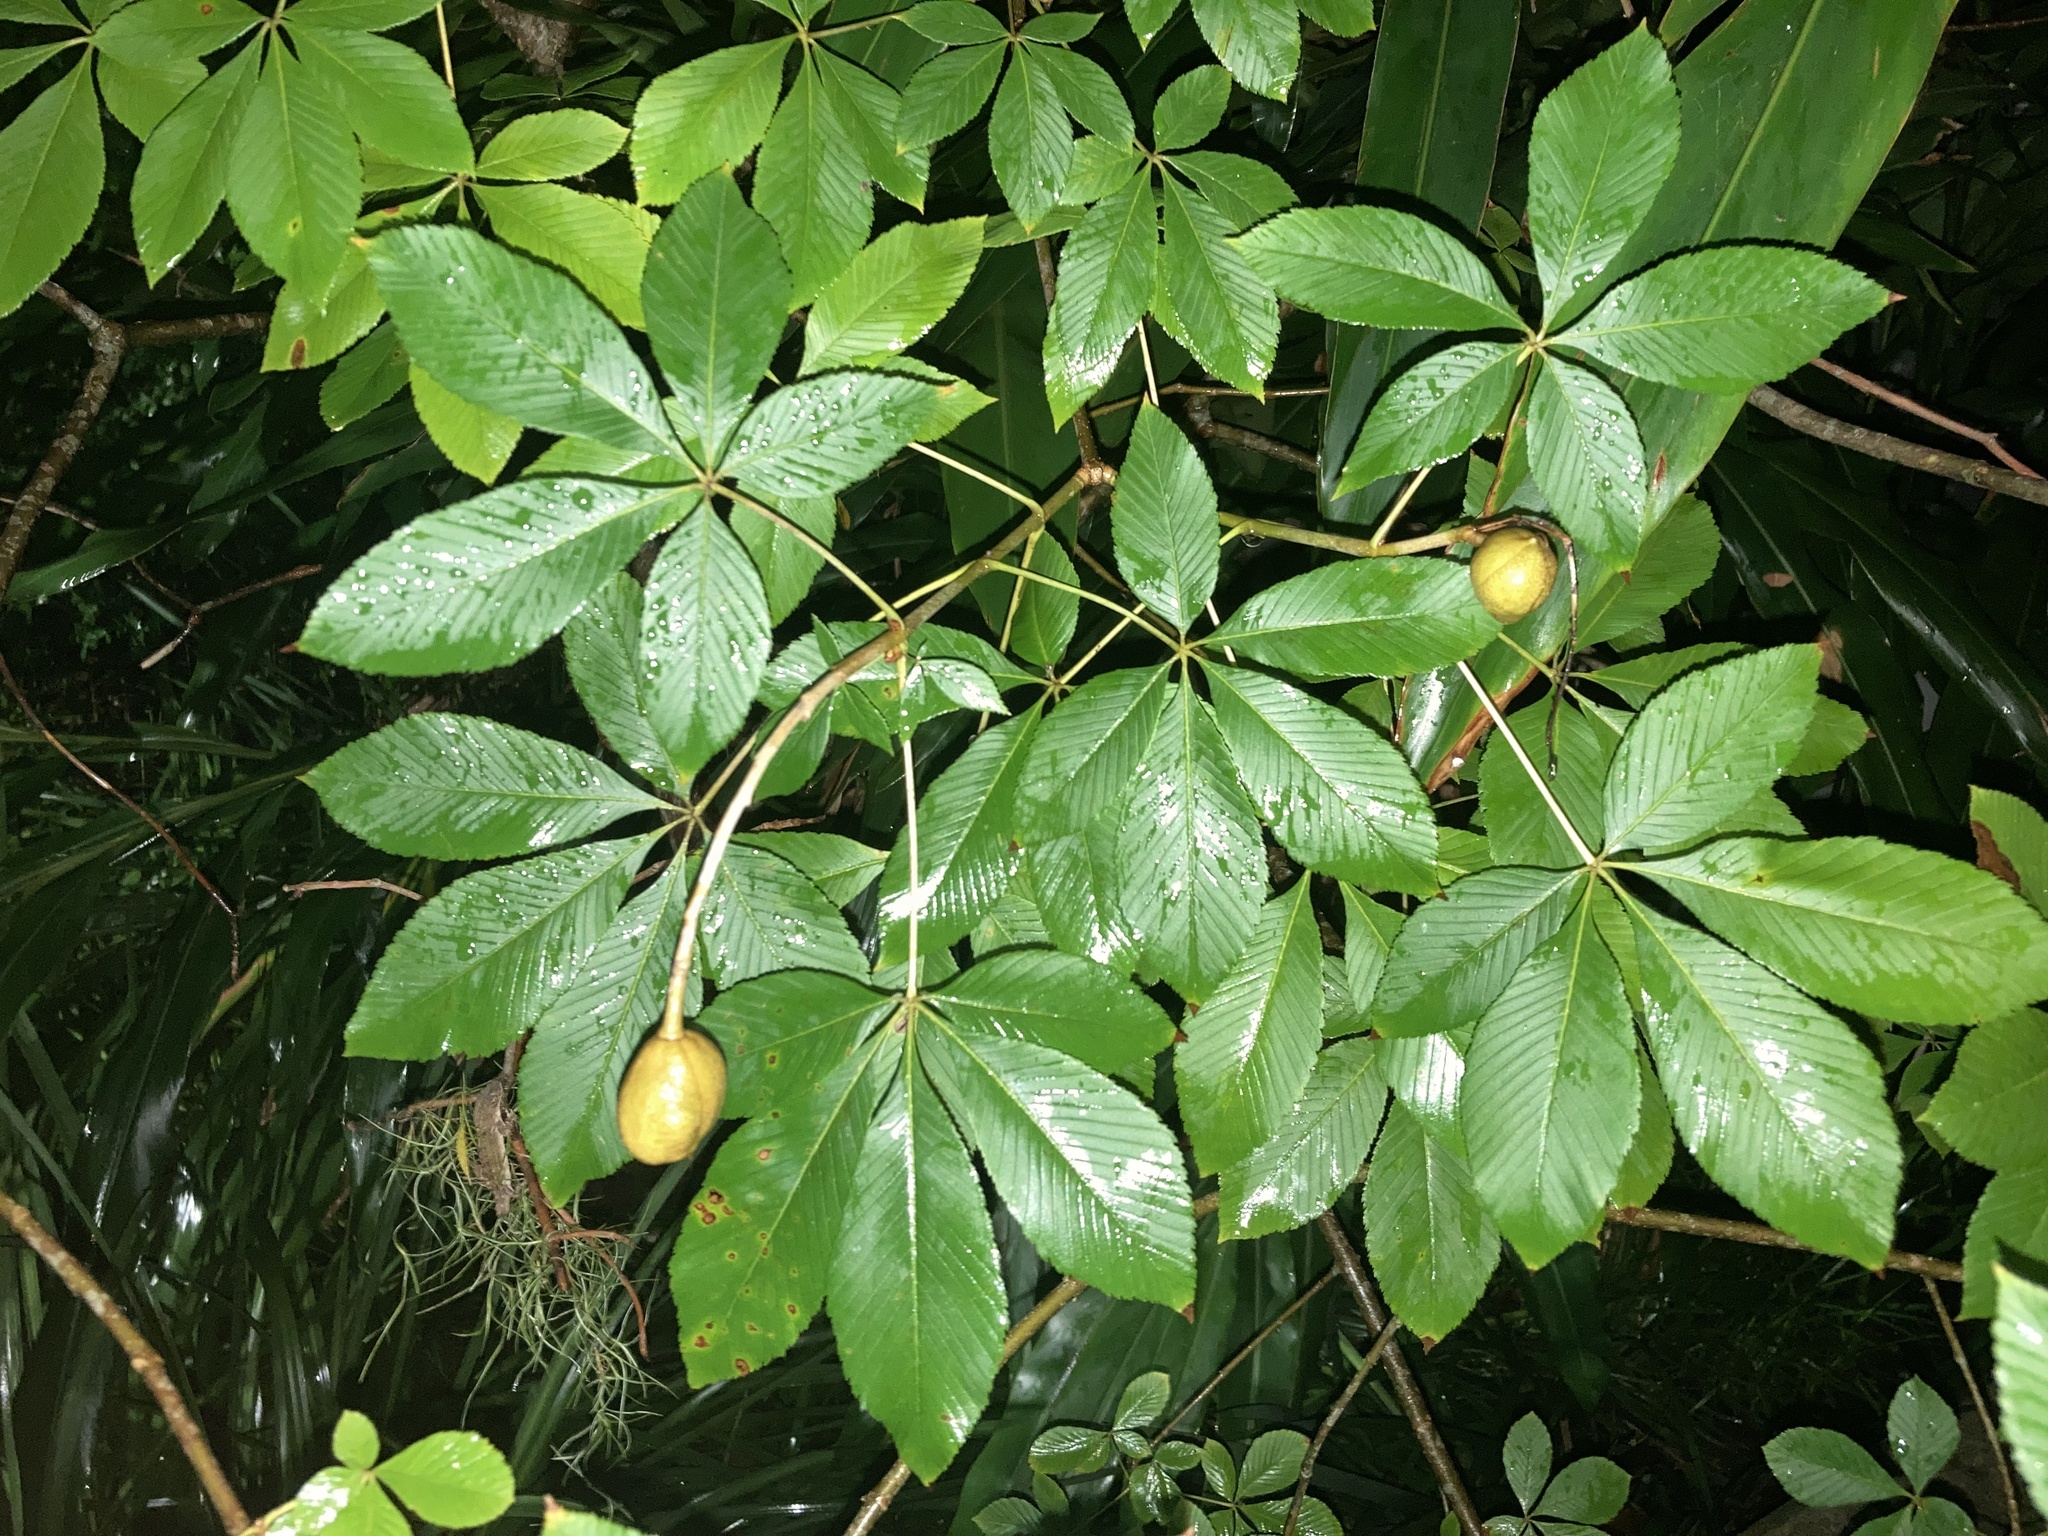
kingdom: Plantae
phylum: Tracheophyta
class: Magnoliopsida
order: Sapindales
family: Sapindaceae
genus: Aesculus
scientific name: Aesculus pavia
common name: Red buckeye
